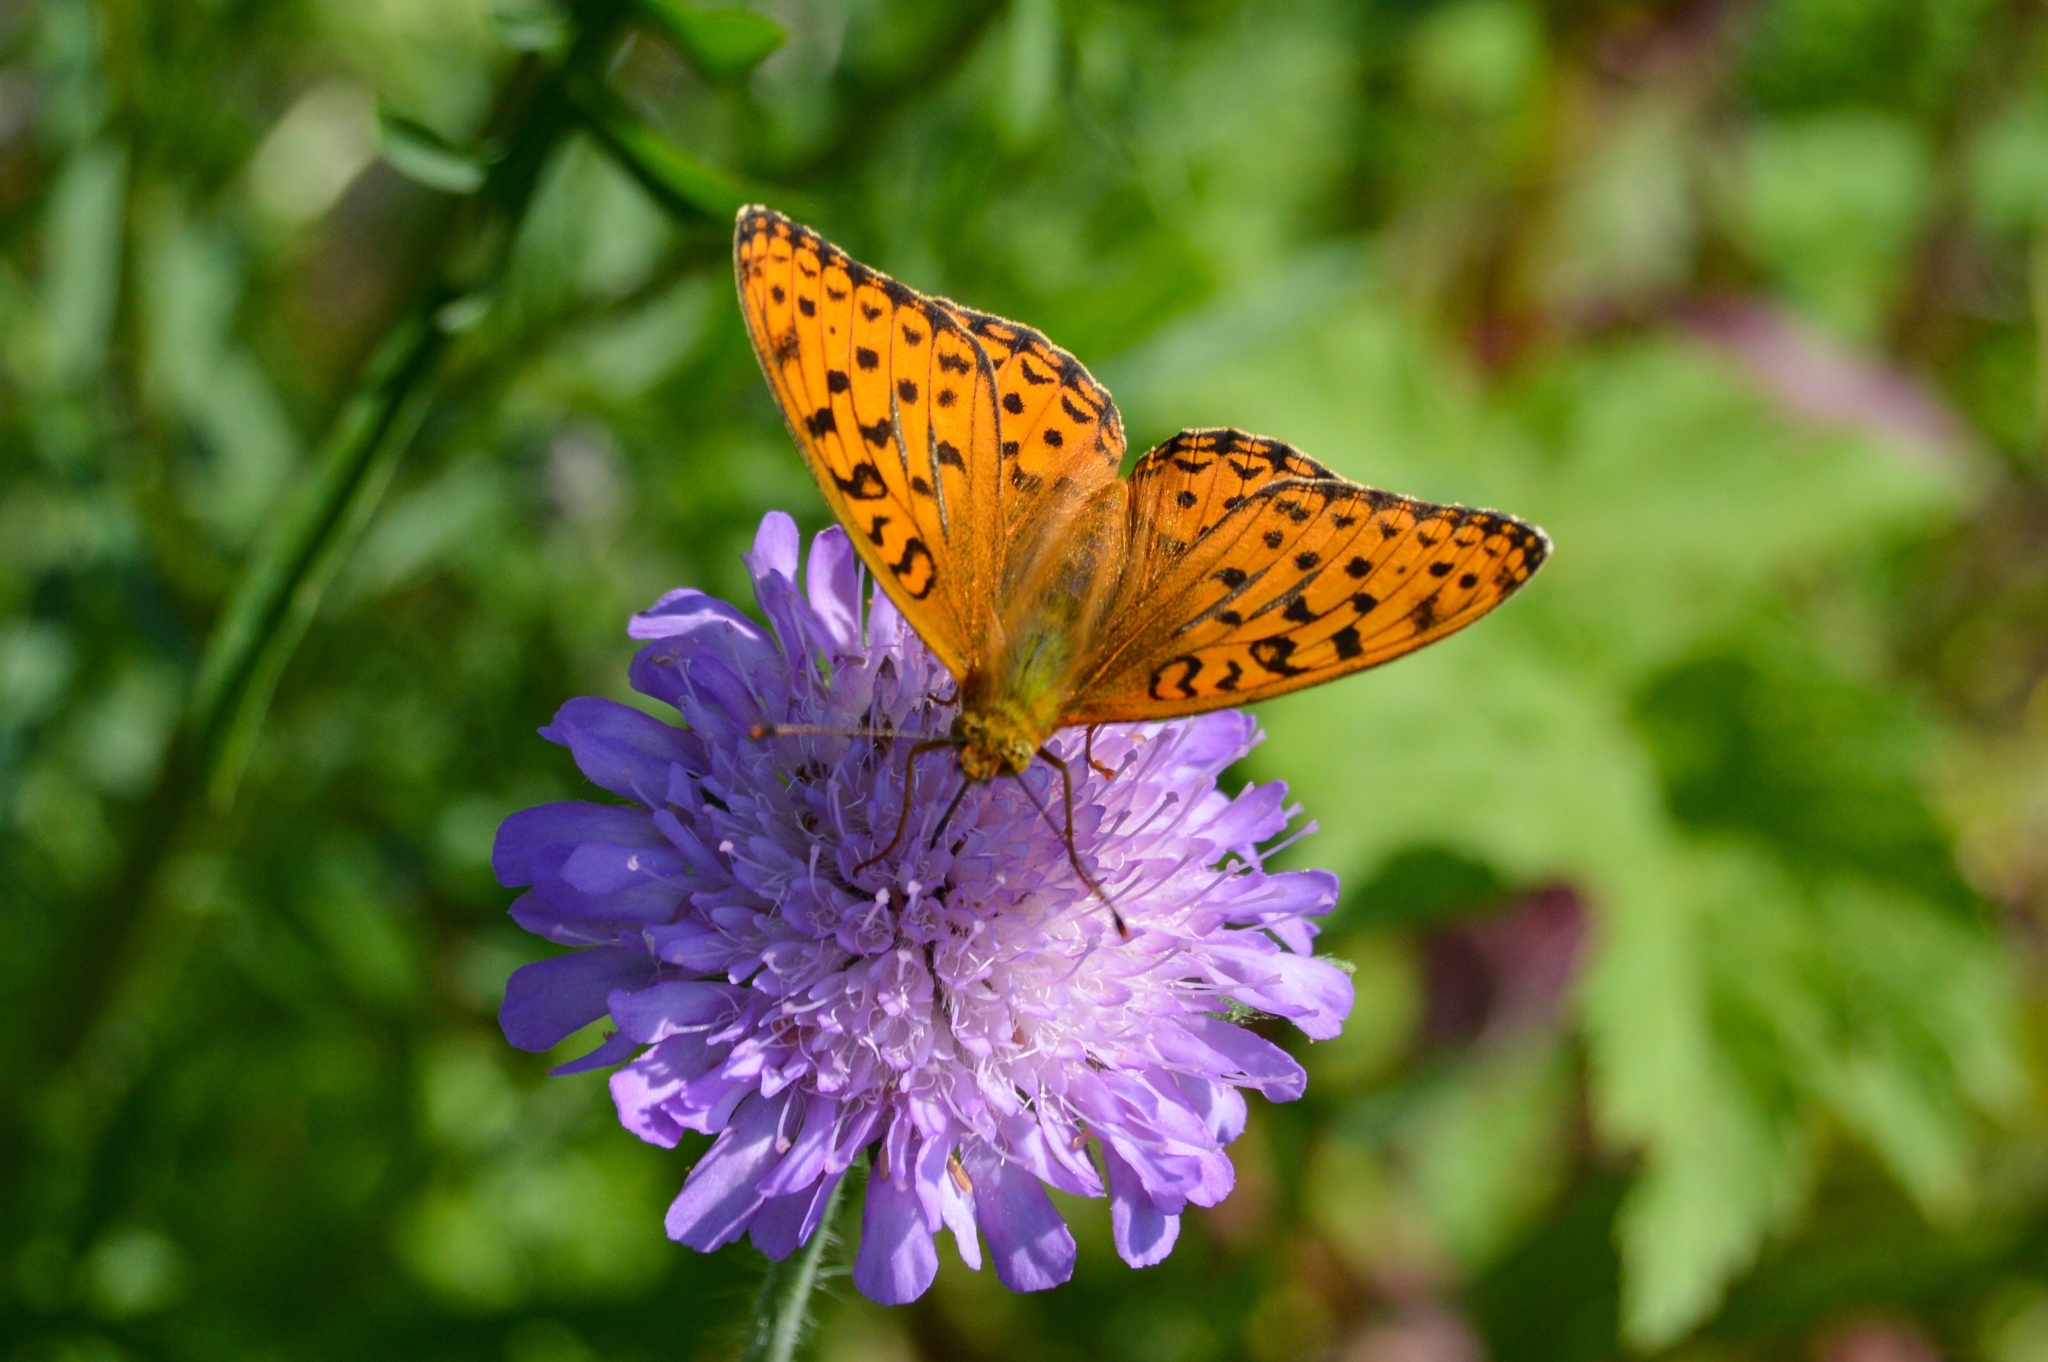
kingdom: Animalia
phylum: Arthropoda
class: Insecta
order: Lepidoptera
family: Nymphalidae
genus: Fabriciana
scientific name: Fabriciana adippe
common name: High brown fritillary
